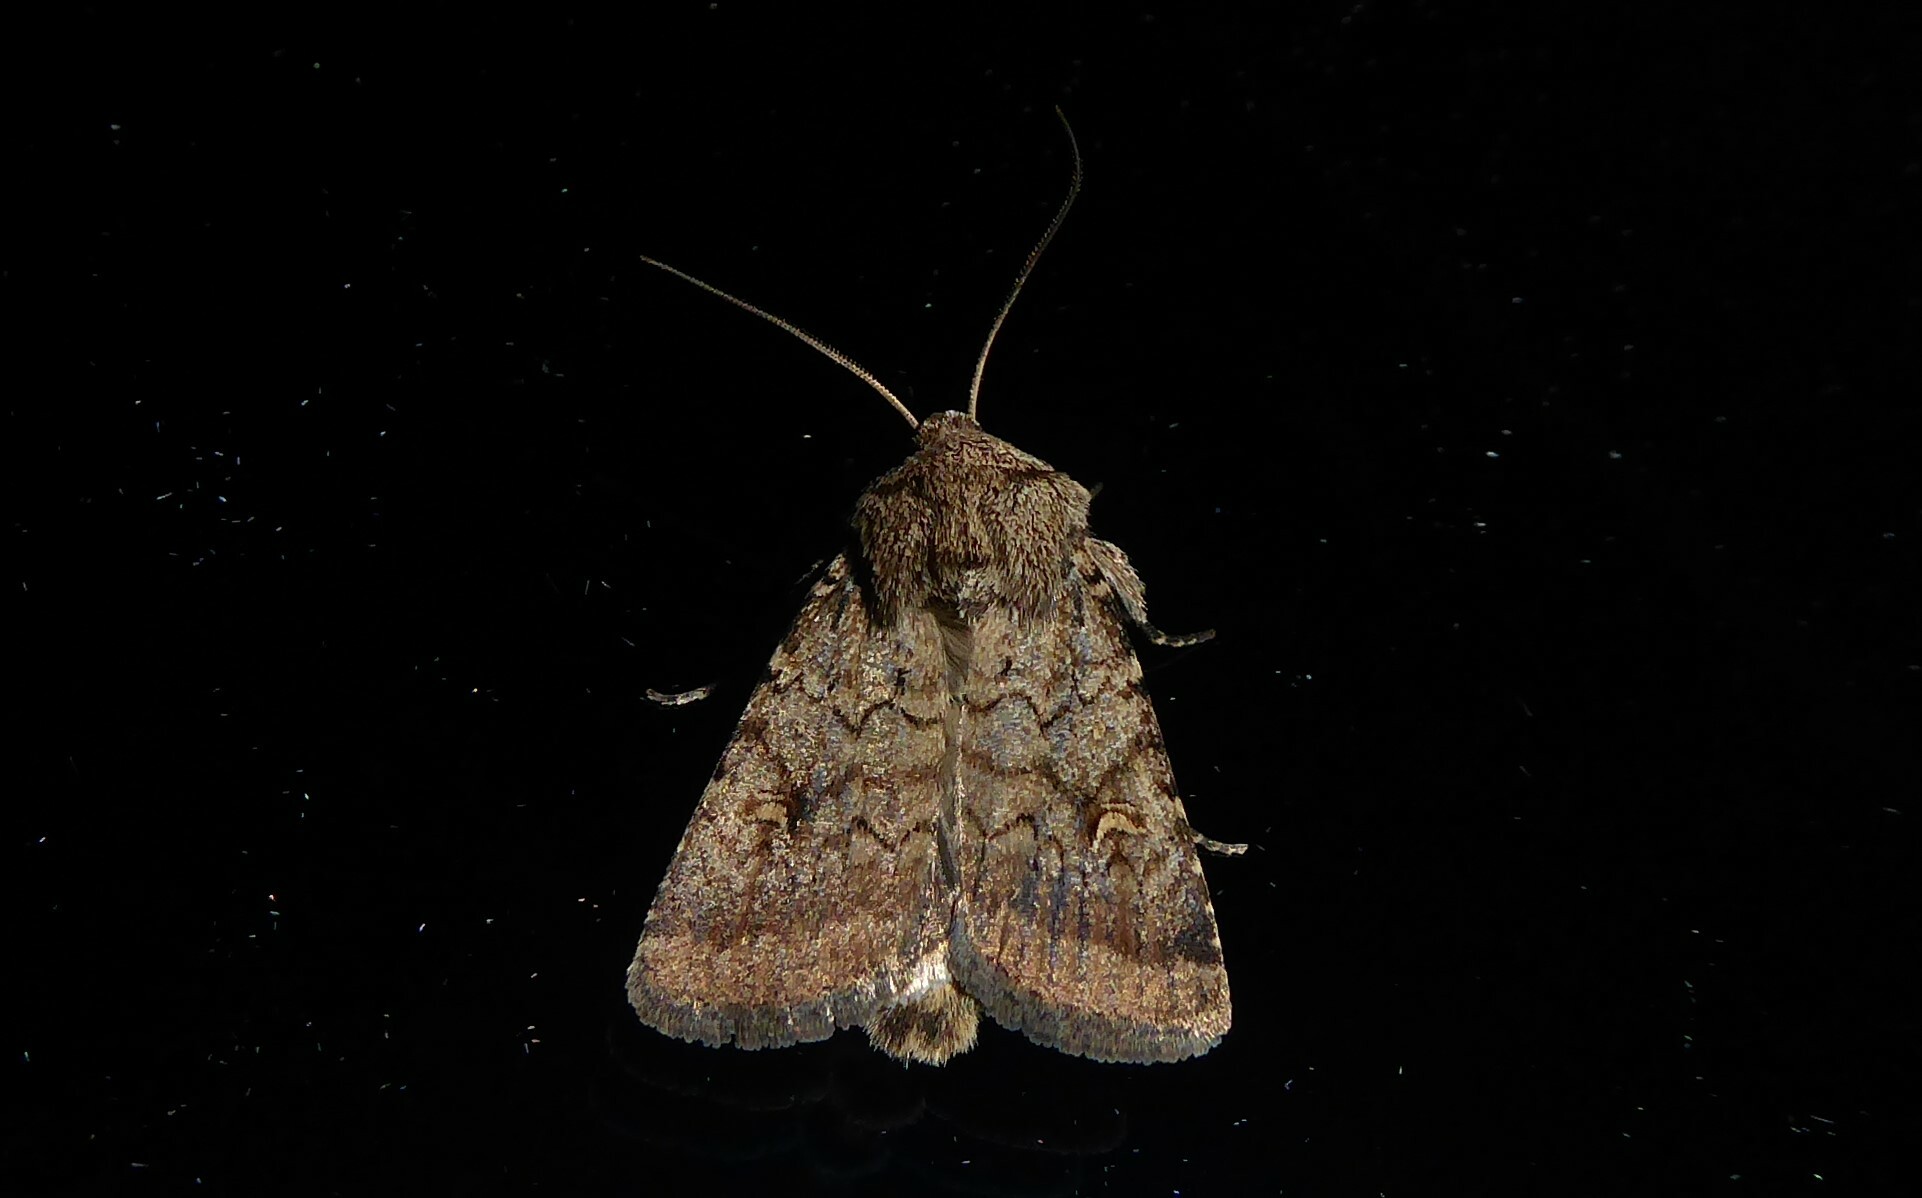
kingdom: Animalia
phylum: Arthropoda
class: Insecta
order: Lepidoptera
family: Noctuidae
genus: Proteuxoa
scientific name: Proteuxoa tetronycha
